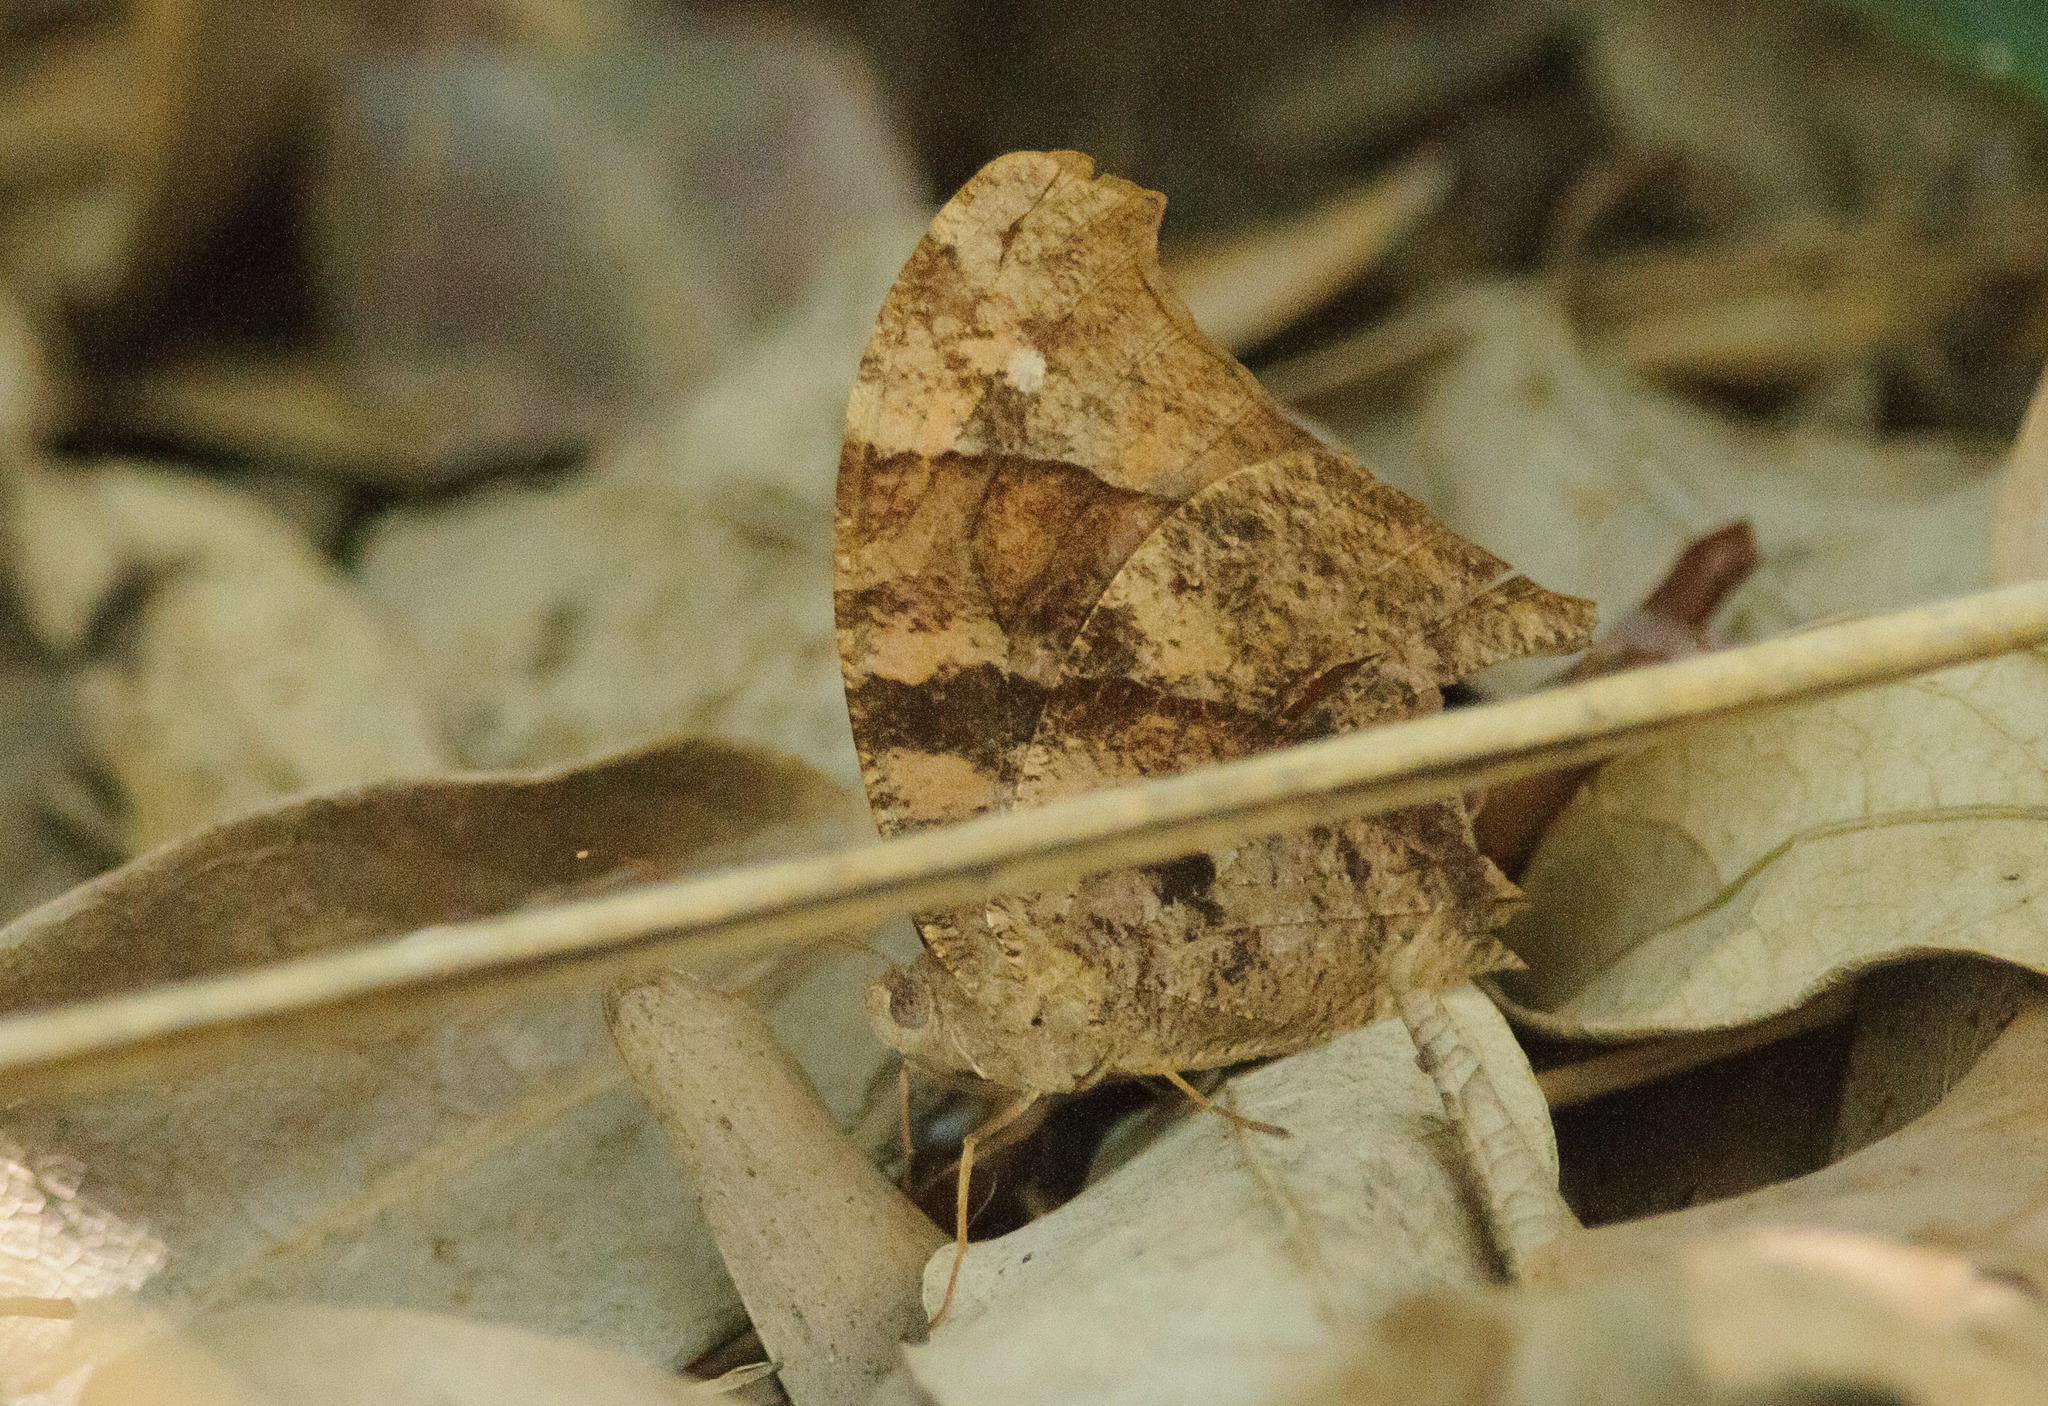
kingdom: Animalia
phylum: Arthropoda
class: Insecta
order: Lepidoptera
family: Nymphalidae
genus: Melanitis
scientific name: Melanitis leda
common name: Twilight brown
